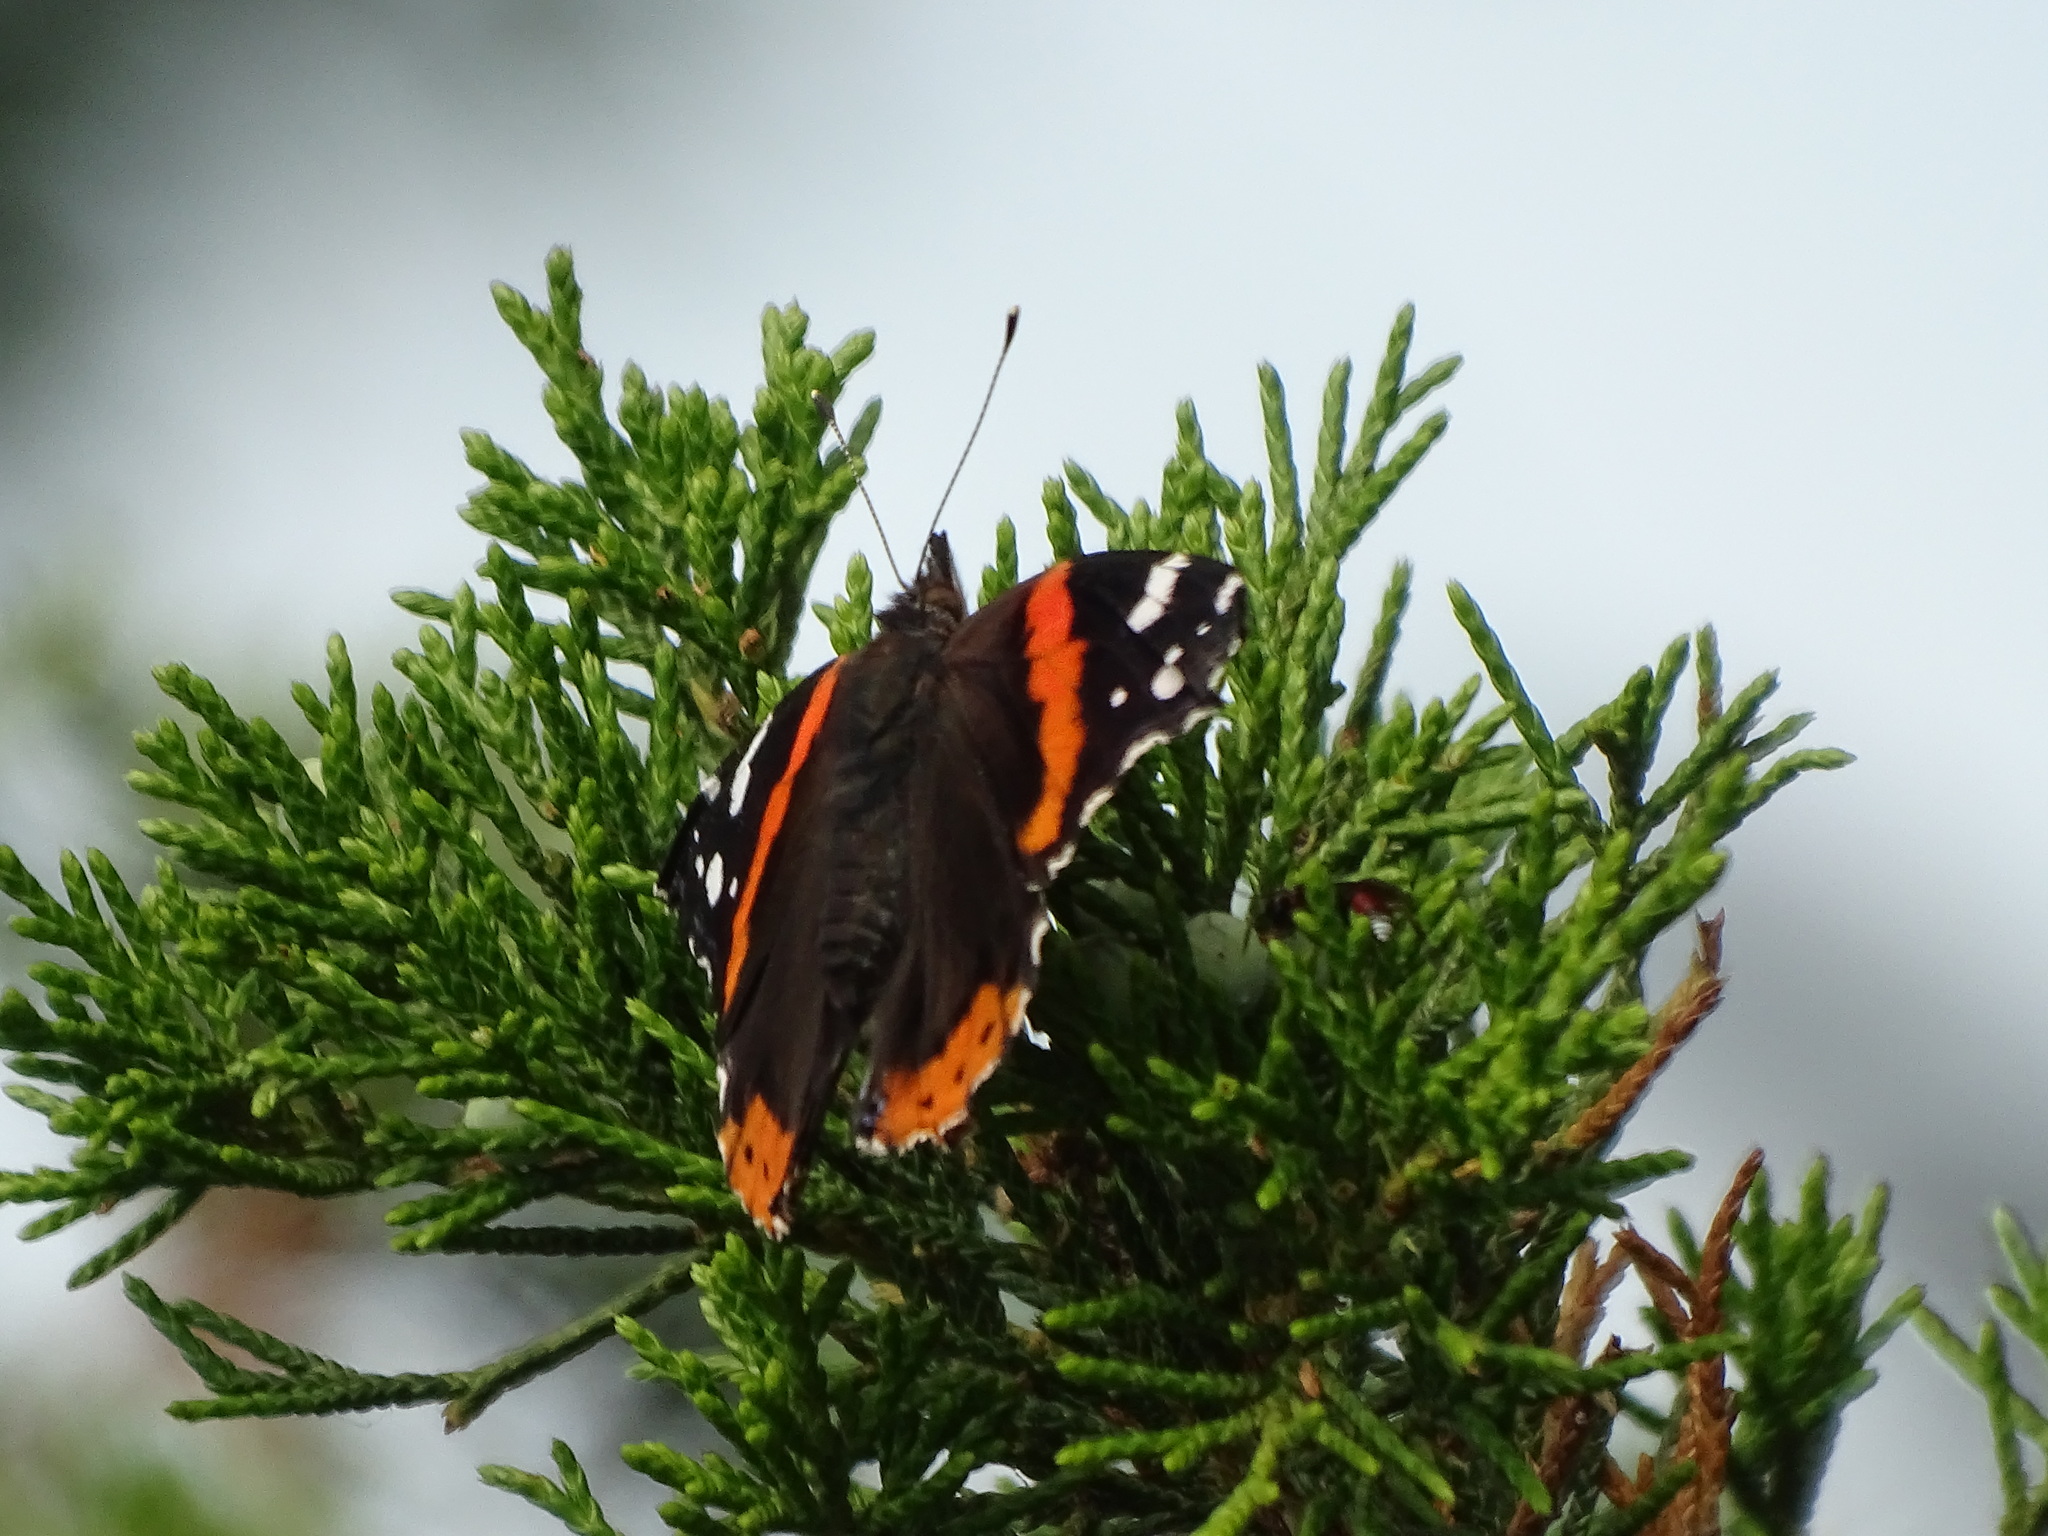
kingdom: Animalia
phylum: Arthropoda
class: Insecta
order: Lepidoptera
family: Nymphalidae
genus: Vanessa
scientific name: Vanessa atalanta
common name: Red admiral
